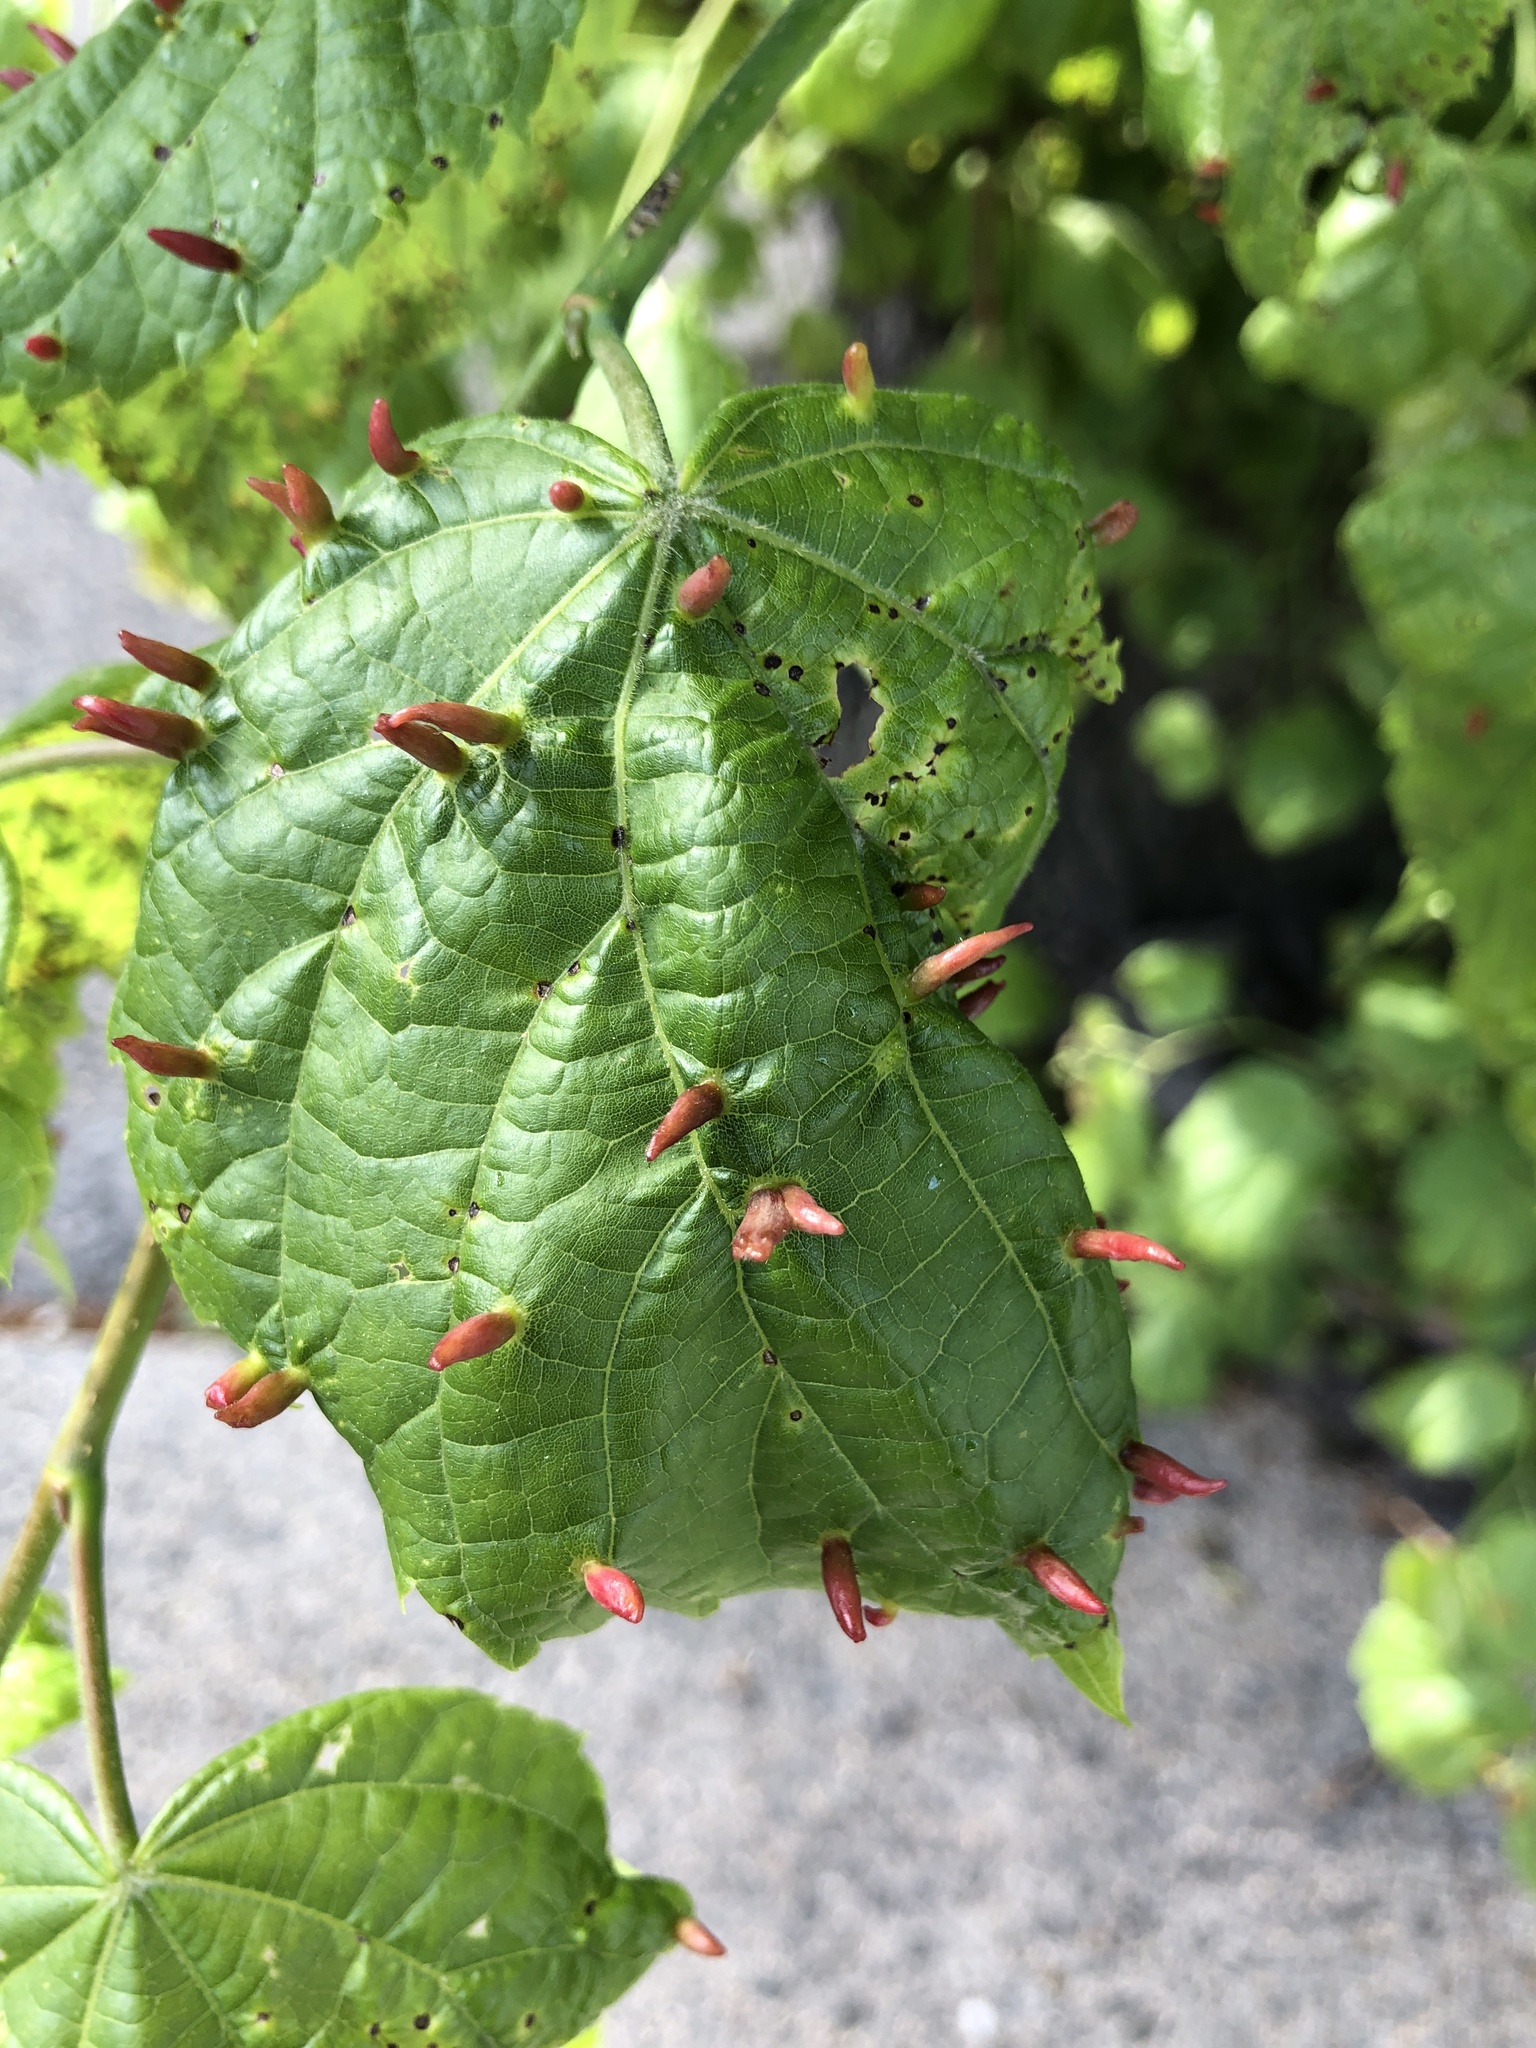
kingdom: Animalia
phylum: Arthropoda
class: Arachnida
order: Trombidiformes
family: Eriophyidae
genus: Eriophyes
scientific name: Eriophyes tiliae
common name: Red nail gall mite
